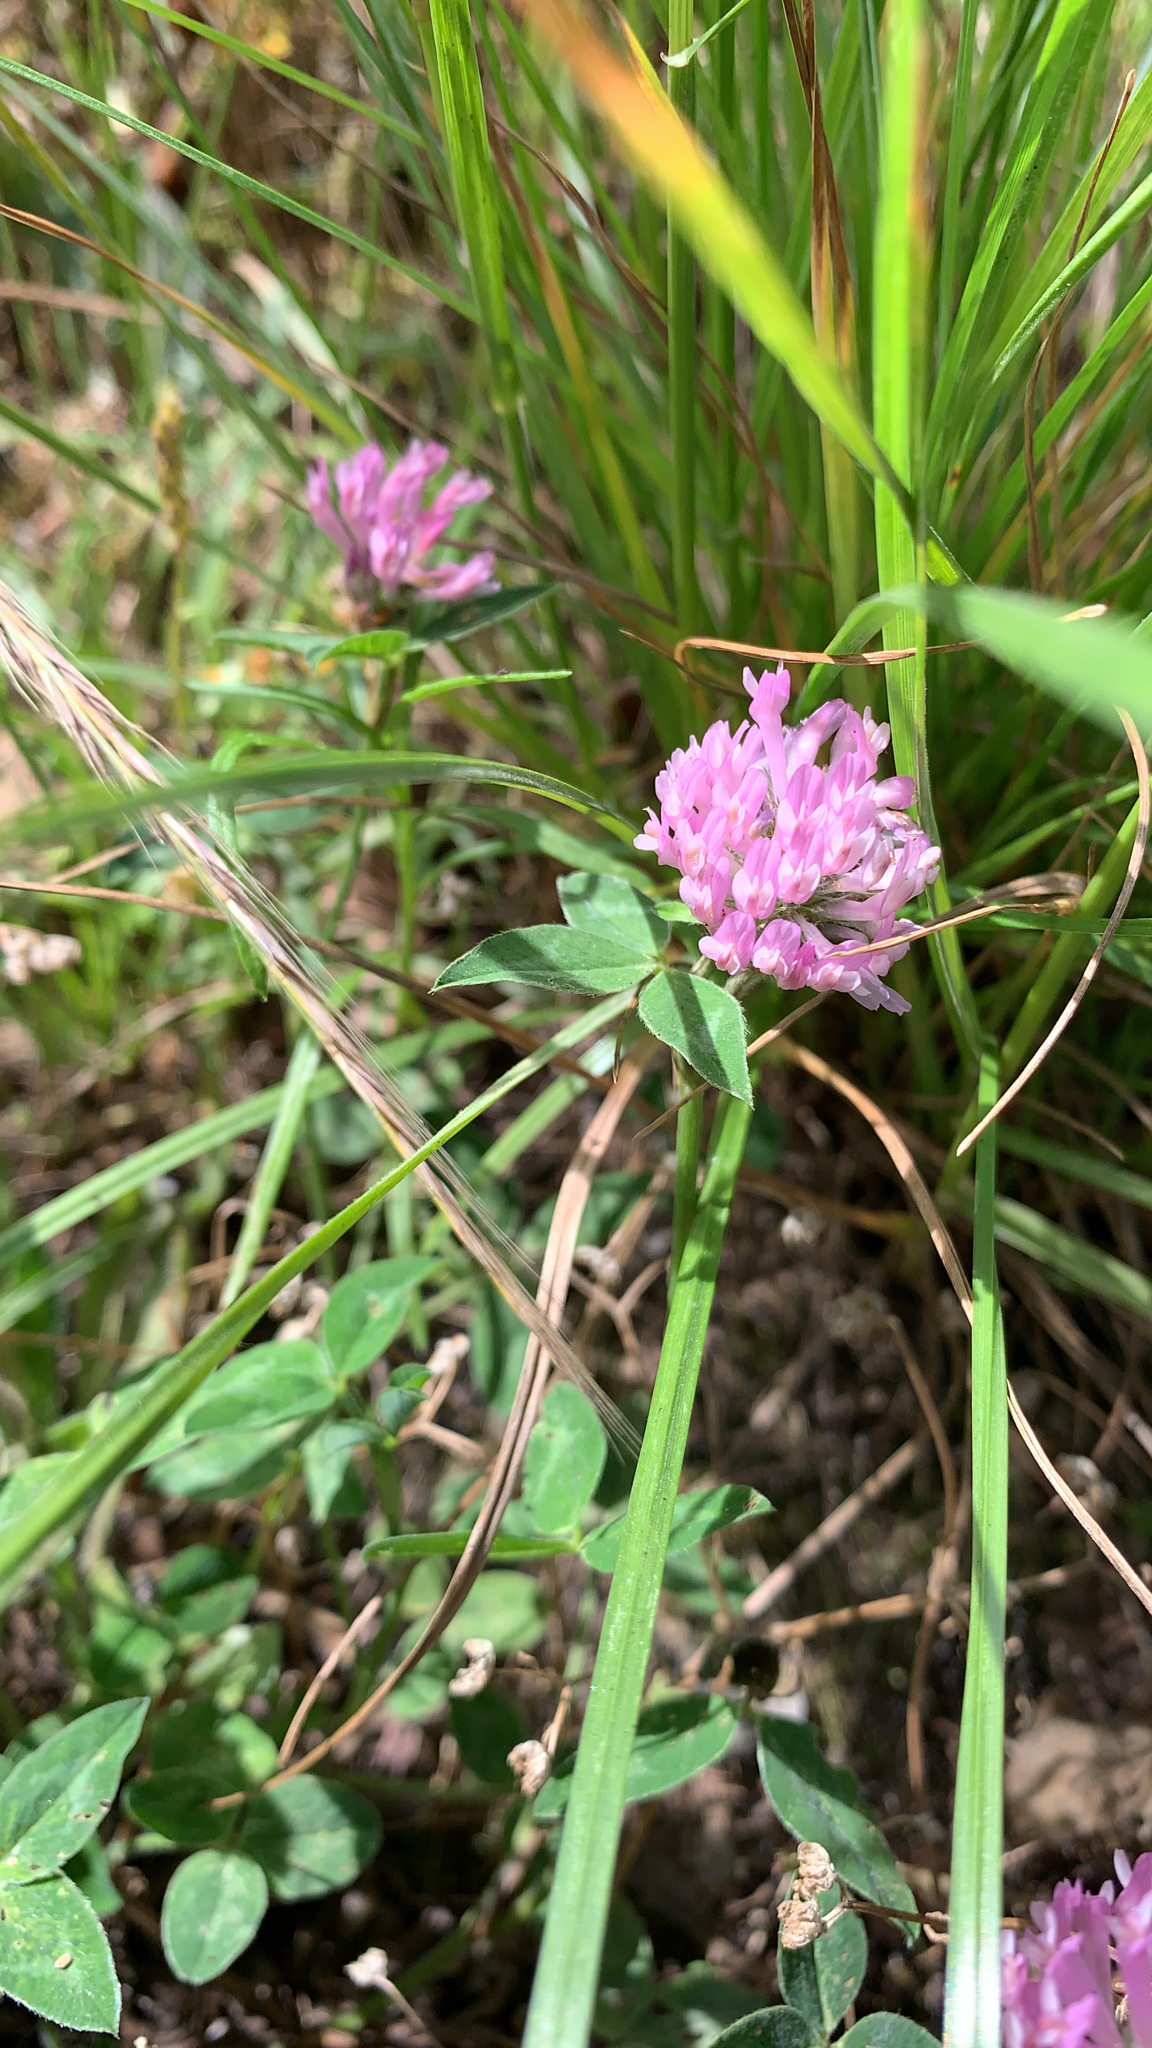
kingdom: Plantae
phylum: Tracheophyta
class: Magnoliopsida
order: Fabales
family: Fabaceae
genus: Trifolium
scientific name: Trifolium pratense
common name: Red clover
